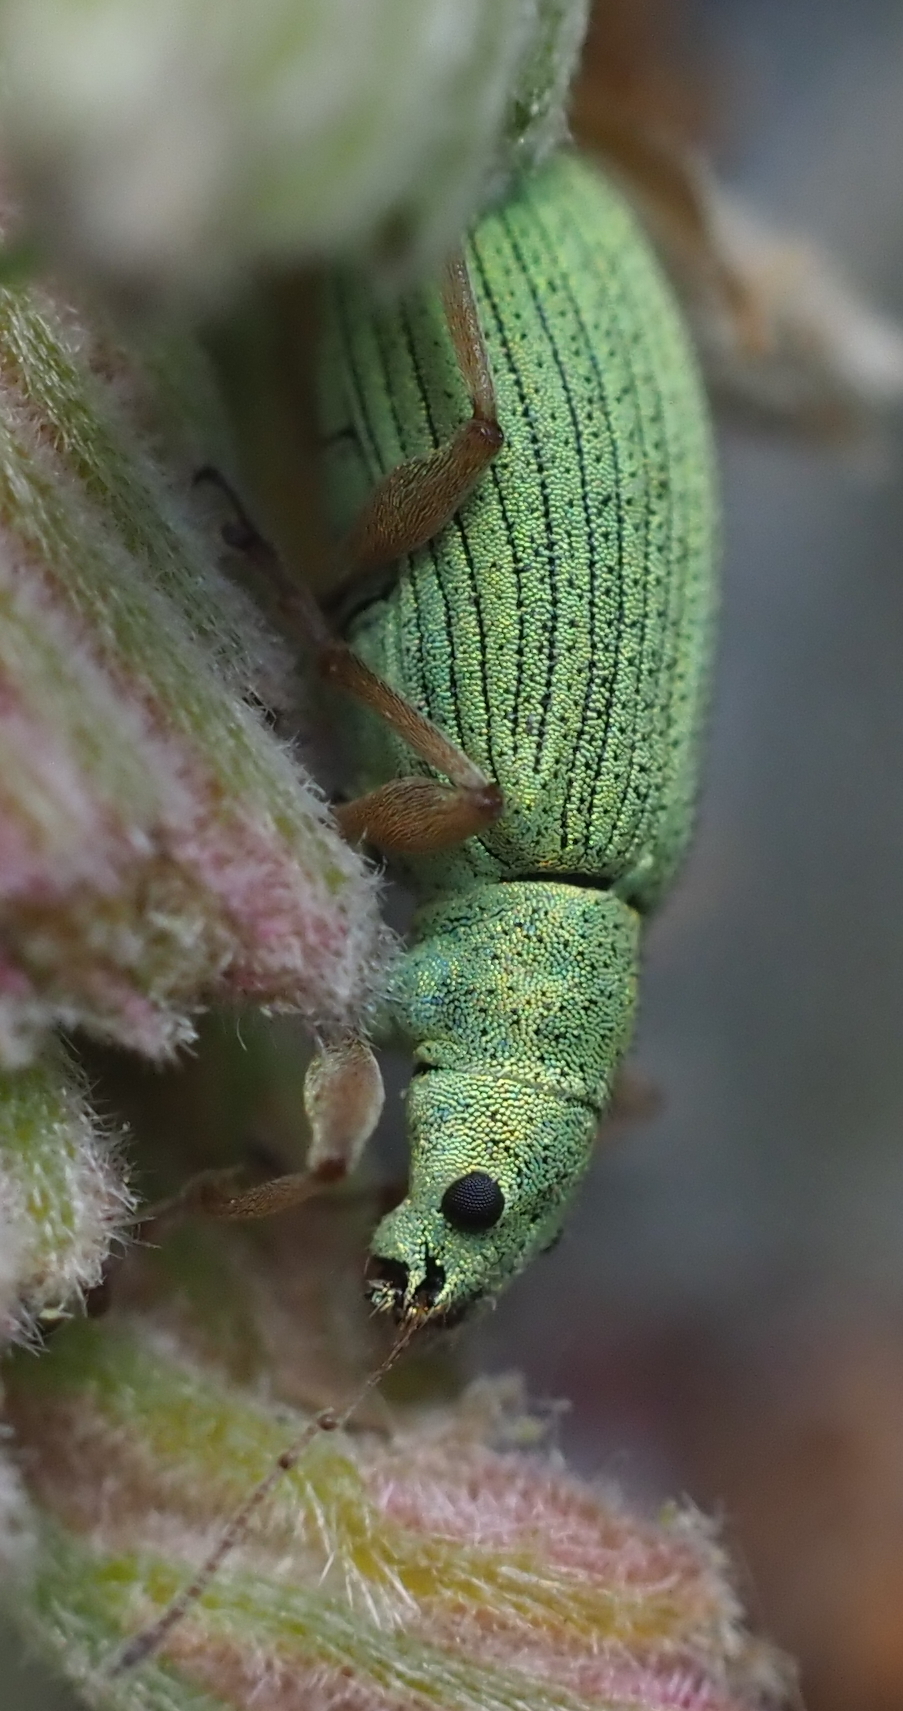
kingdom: Animalia
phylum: Arthropoda
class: Insecta
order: Coleoptera
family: Curculionidae
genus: Polydrusus
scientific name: Polydrusus impressifrons
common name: Weevil
